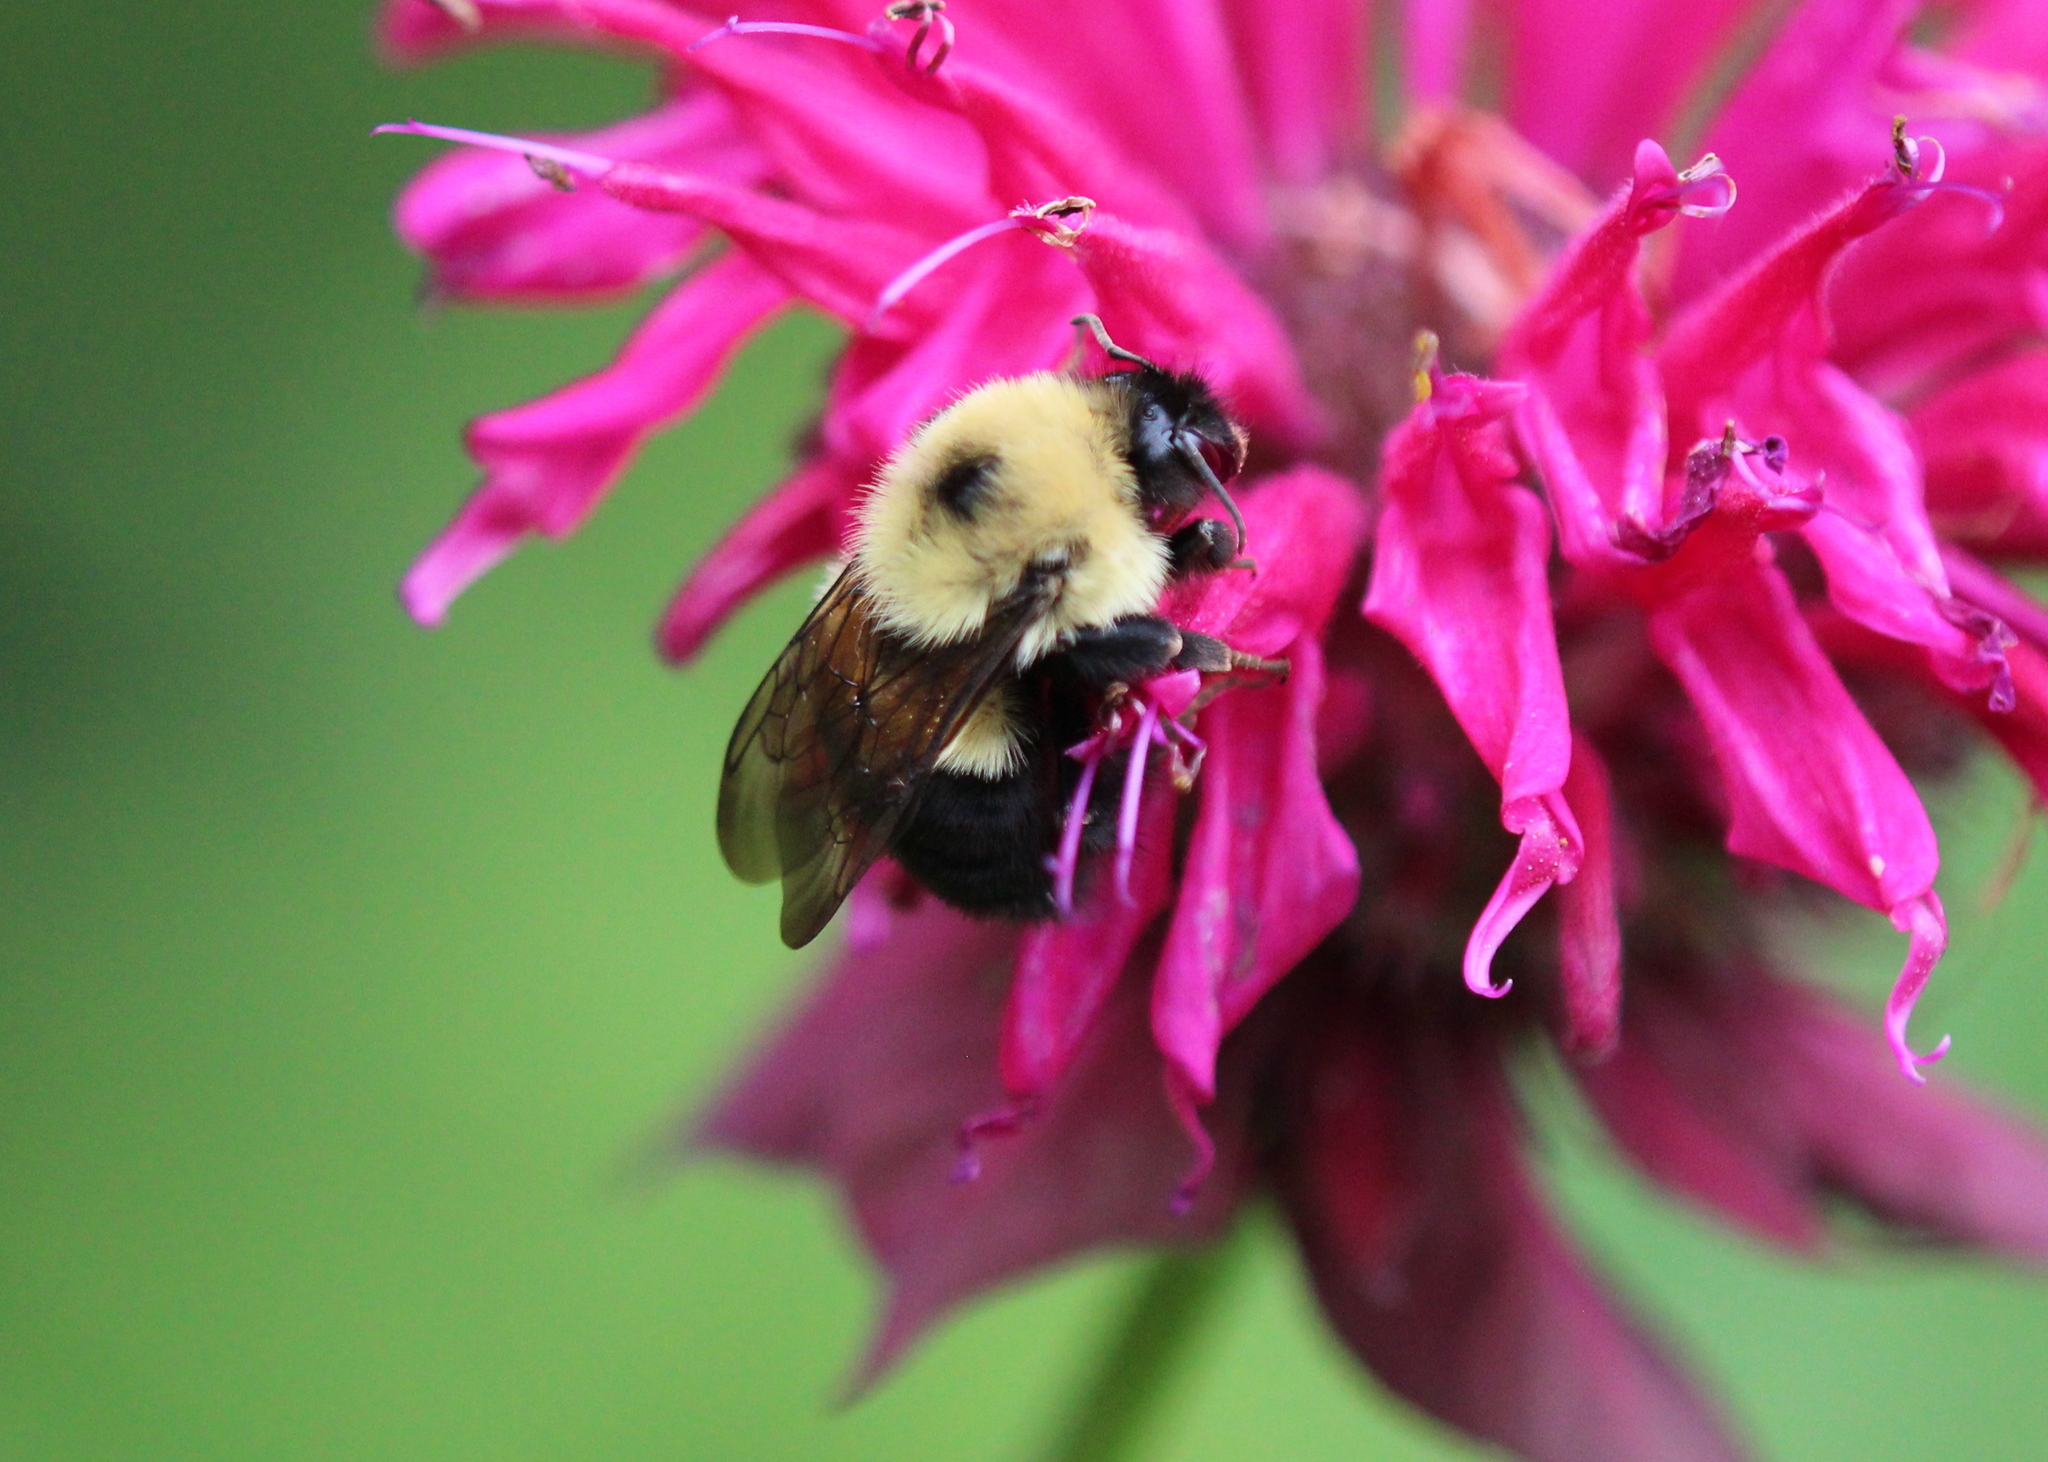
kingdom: Animalia
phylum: Arthropoda
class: Insecta
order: Hymenoptera
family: Apidae
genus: Bombus
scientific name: Bombus bimaculatus
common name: Two-spotted bumble bee
